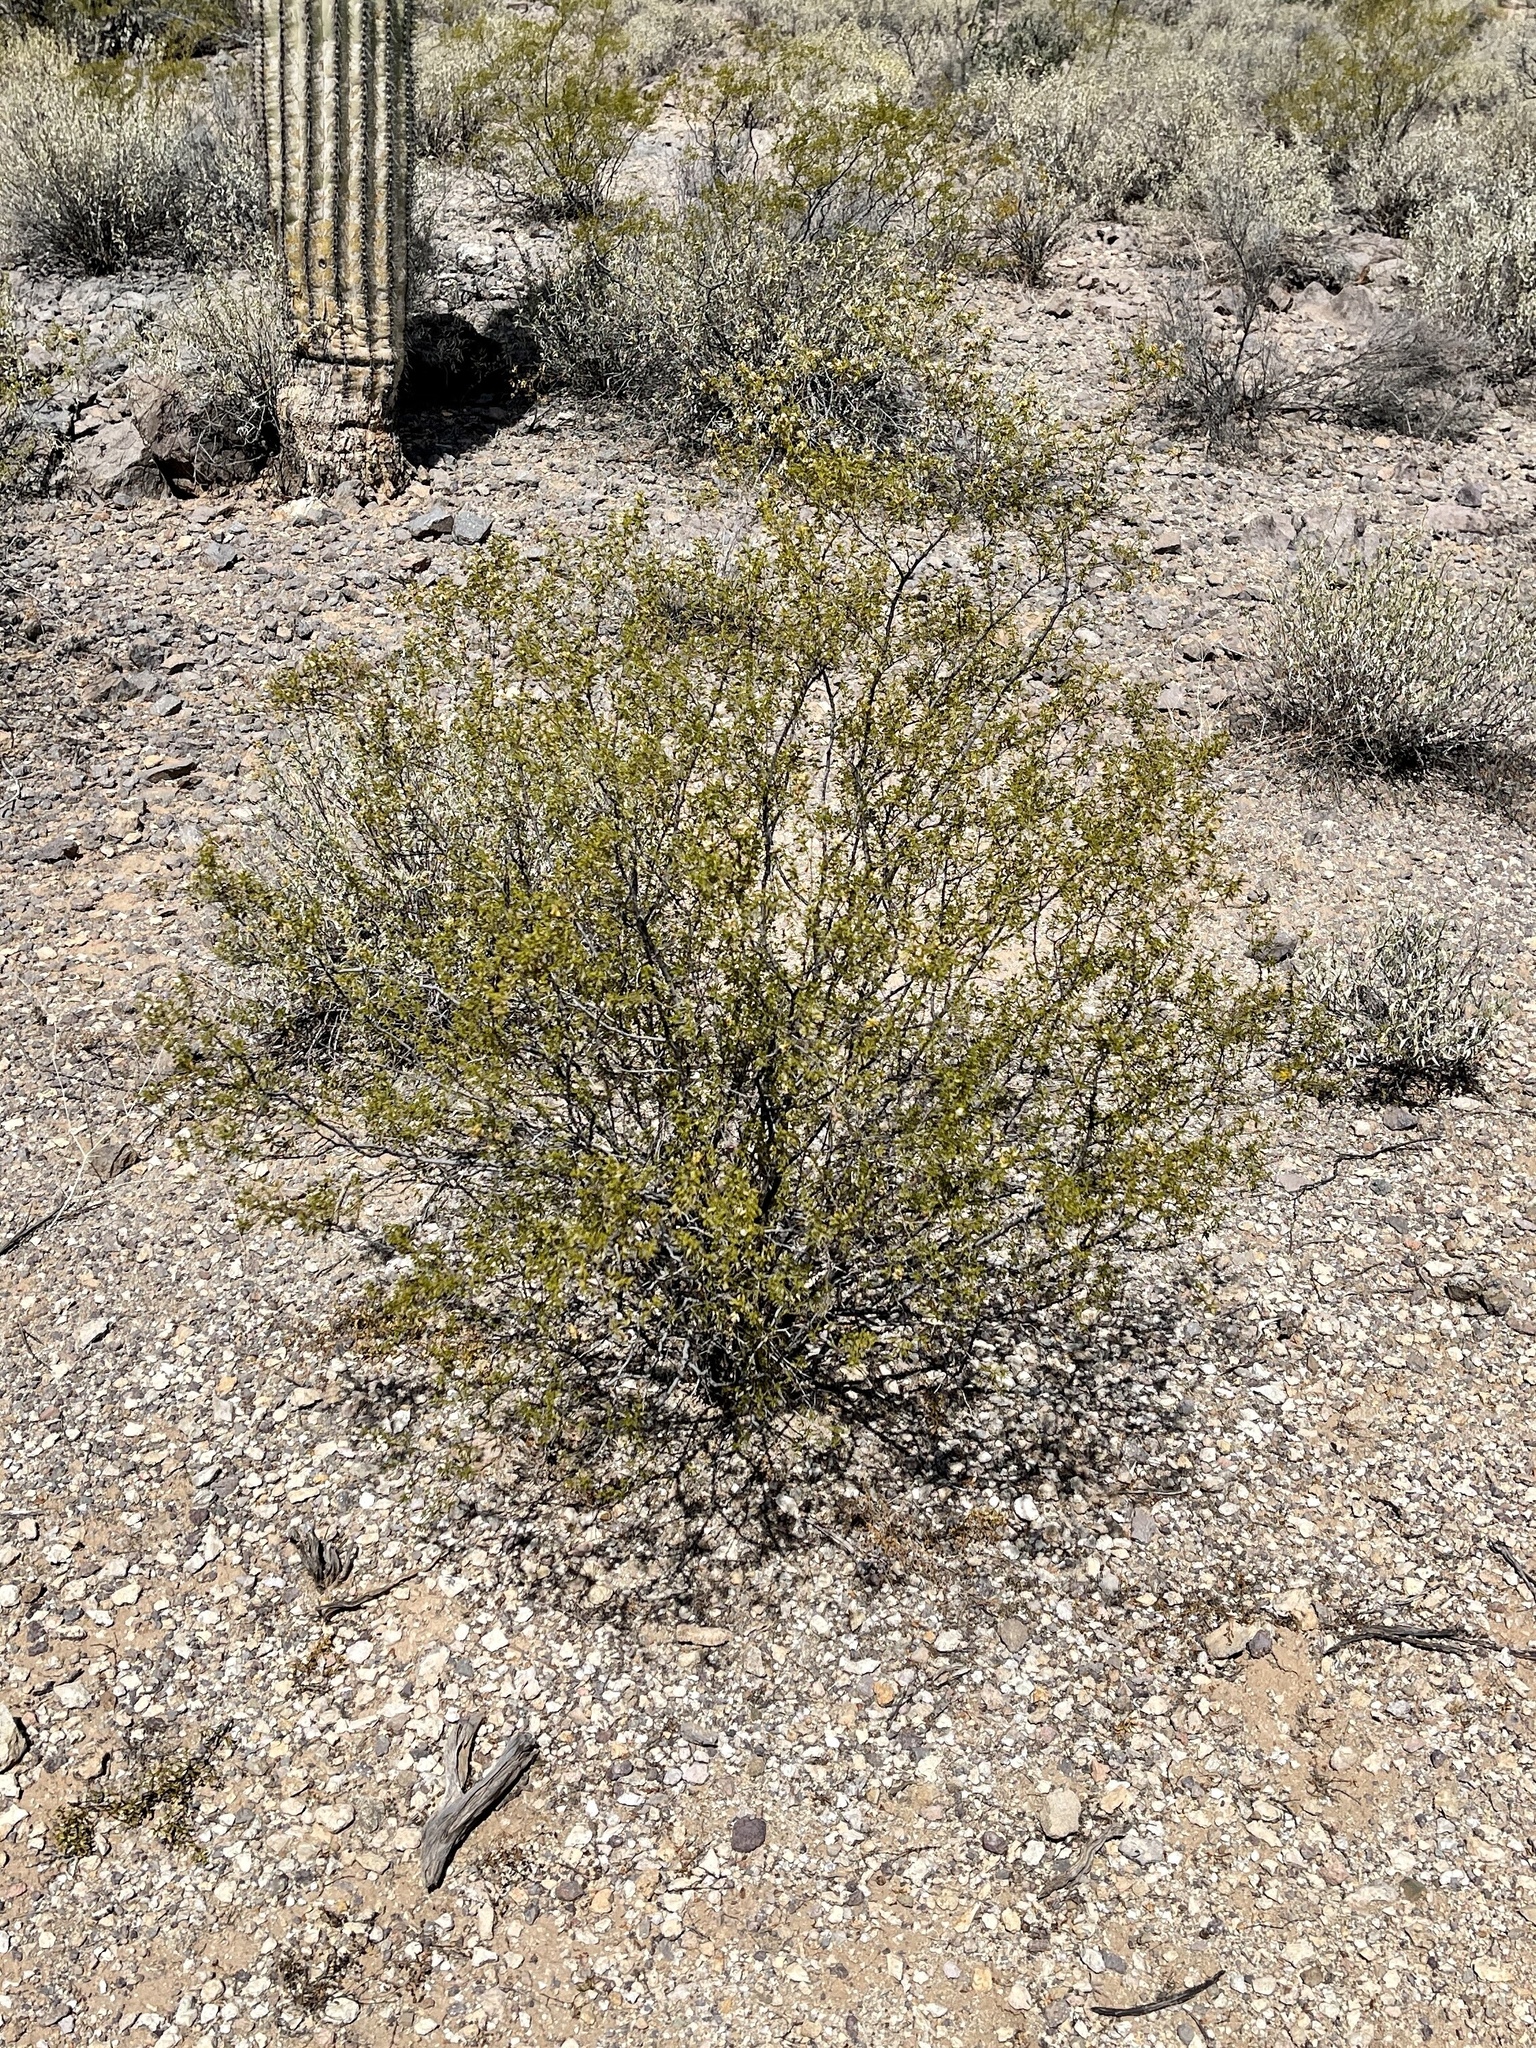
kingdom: Plantae
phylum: Tracheophyta
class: Magnoliopsida
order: Zygophyllales
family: Zygophyllaceae
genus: Larrea
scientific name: Larrea tridentata
